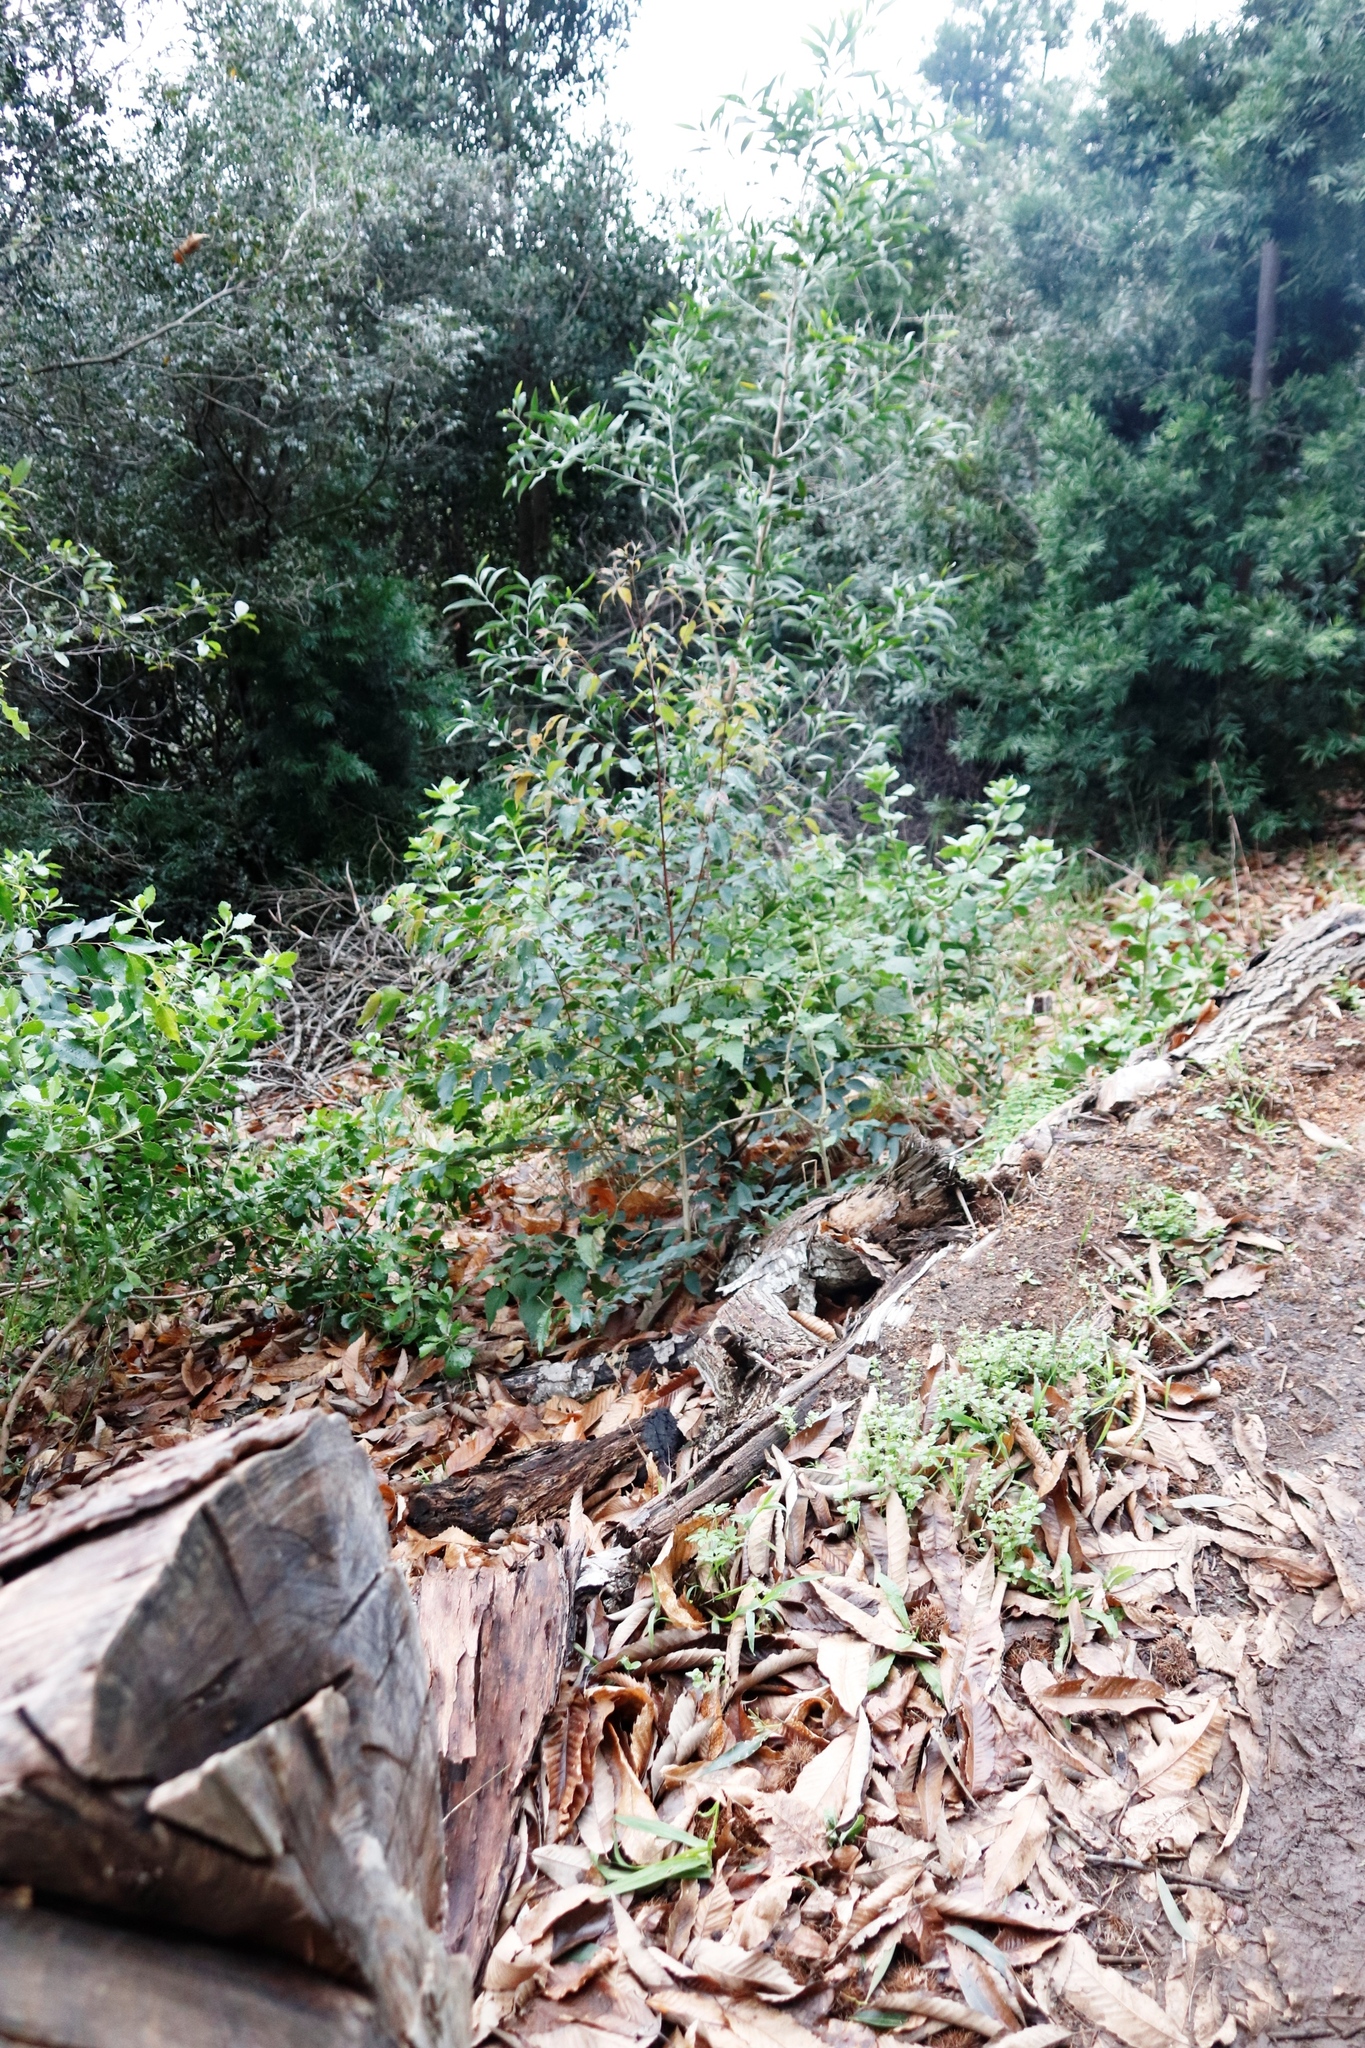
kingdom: Plantae
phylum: Tracheophyta
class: Magnoliopsida
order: Fabales
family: Fabaceae
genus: Acacia
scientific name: Acacia melanoxylon
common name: Blackwood
